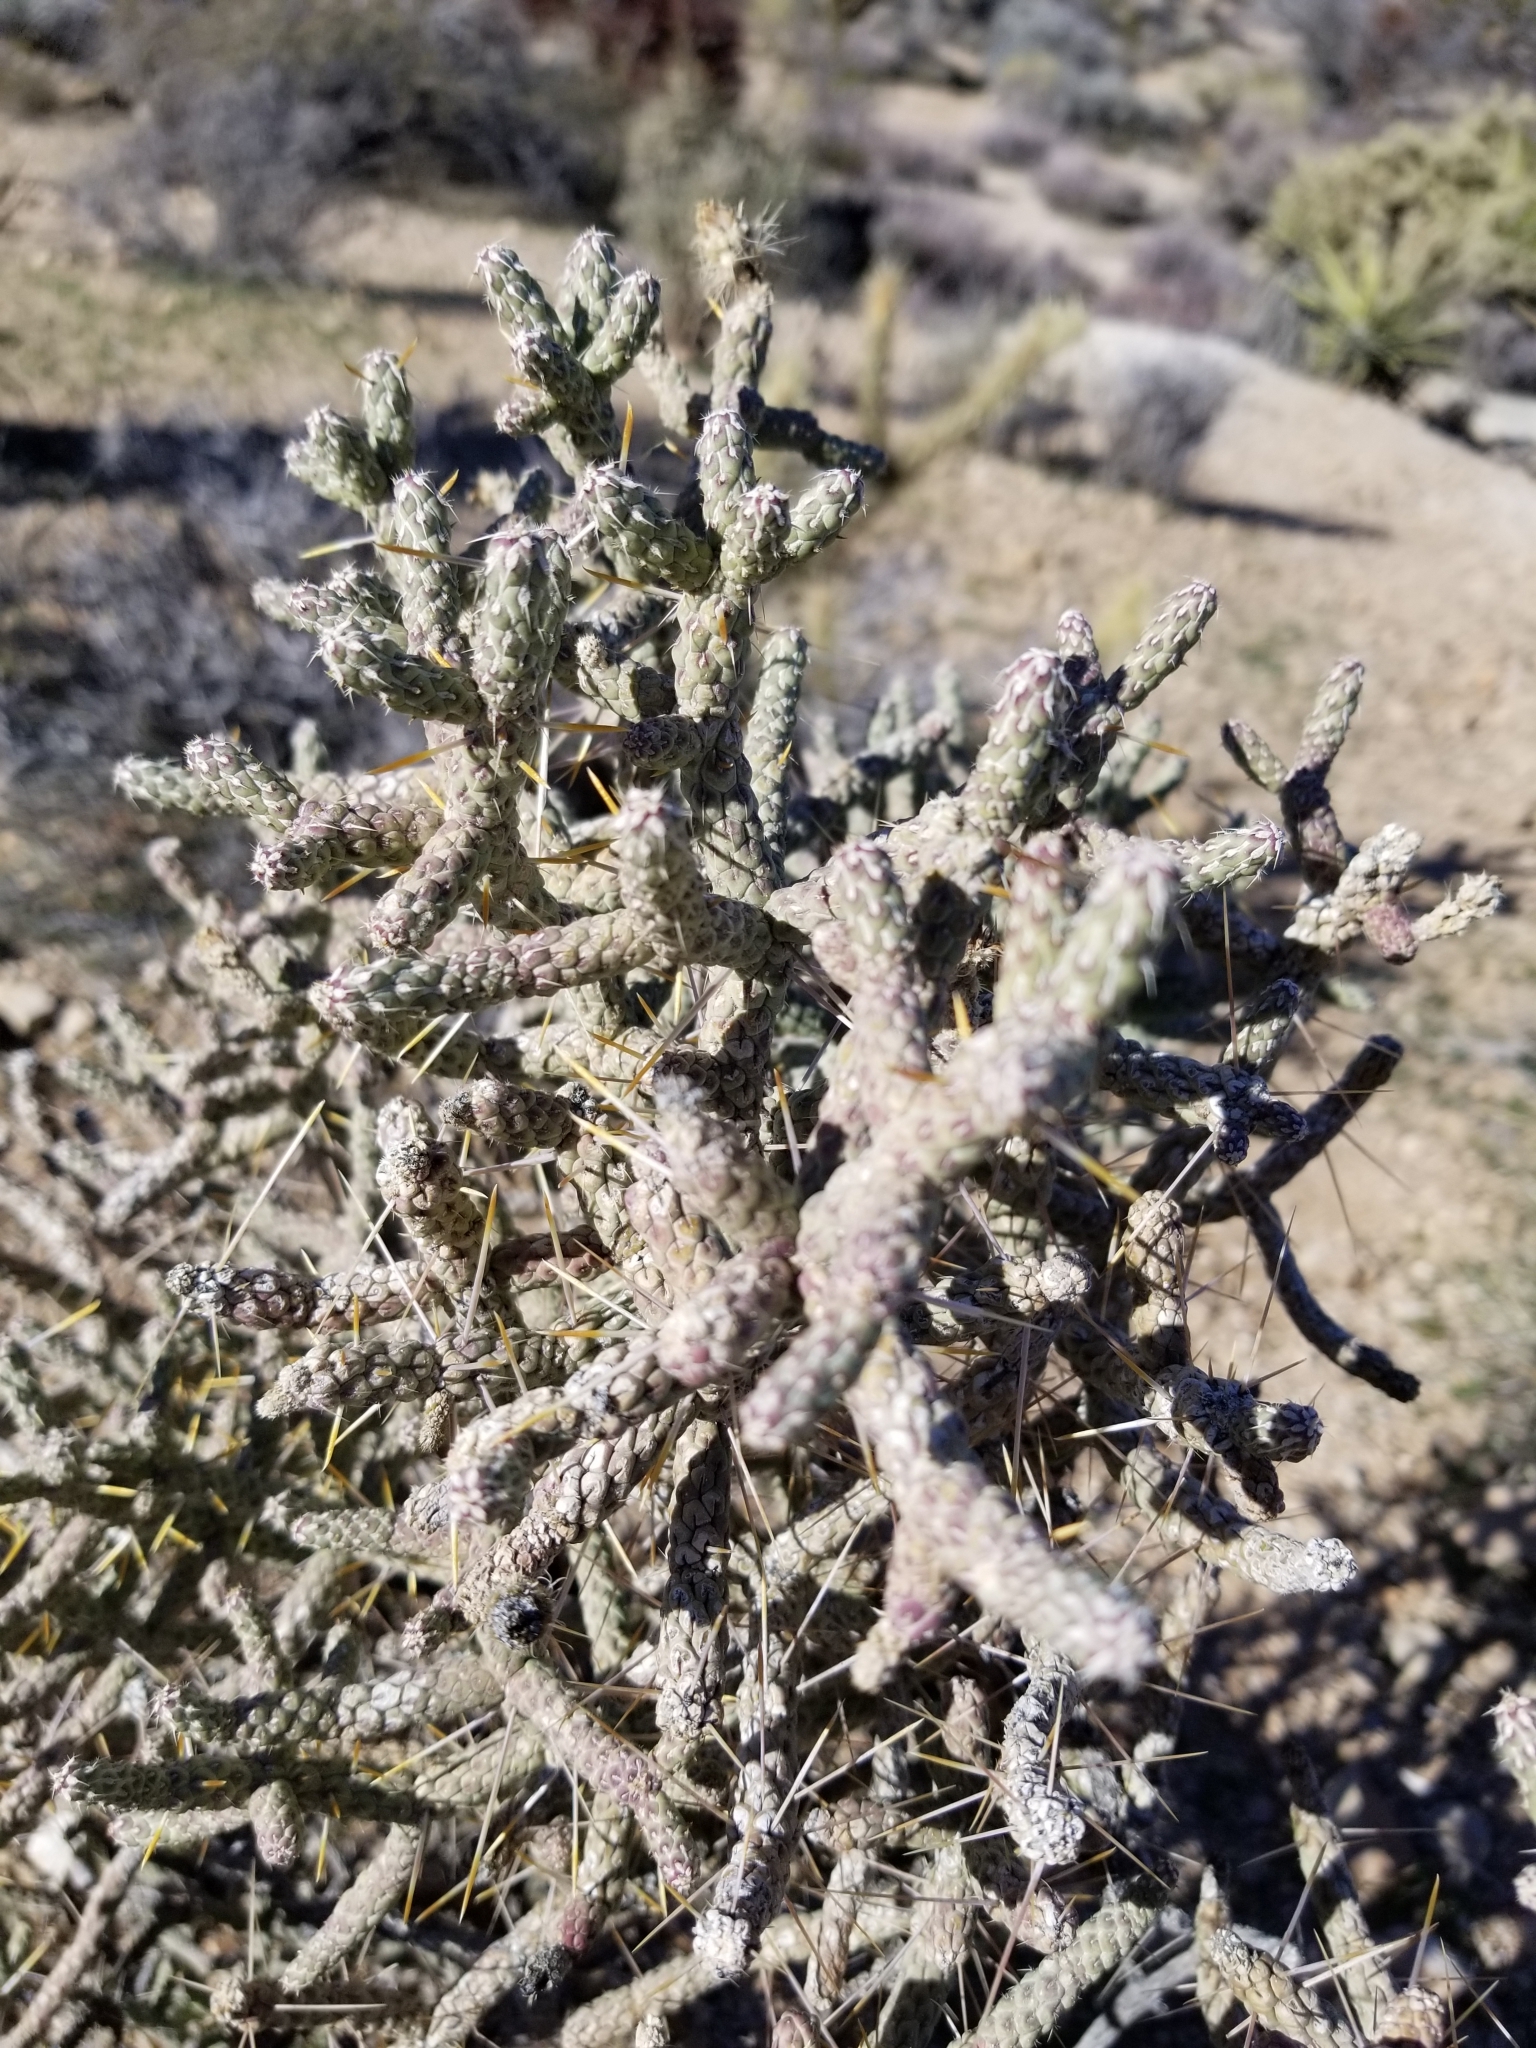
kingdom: Plantae
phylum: Tracheophyta
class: Magnoliopsida
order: Caryophyllales
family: Cactaceae
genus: Cylindropuntia
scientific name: Cylindropuntia ramosissima
